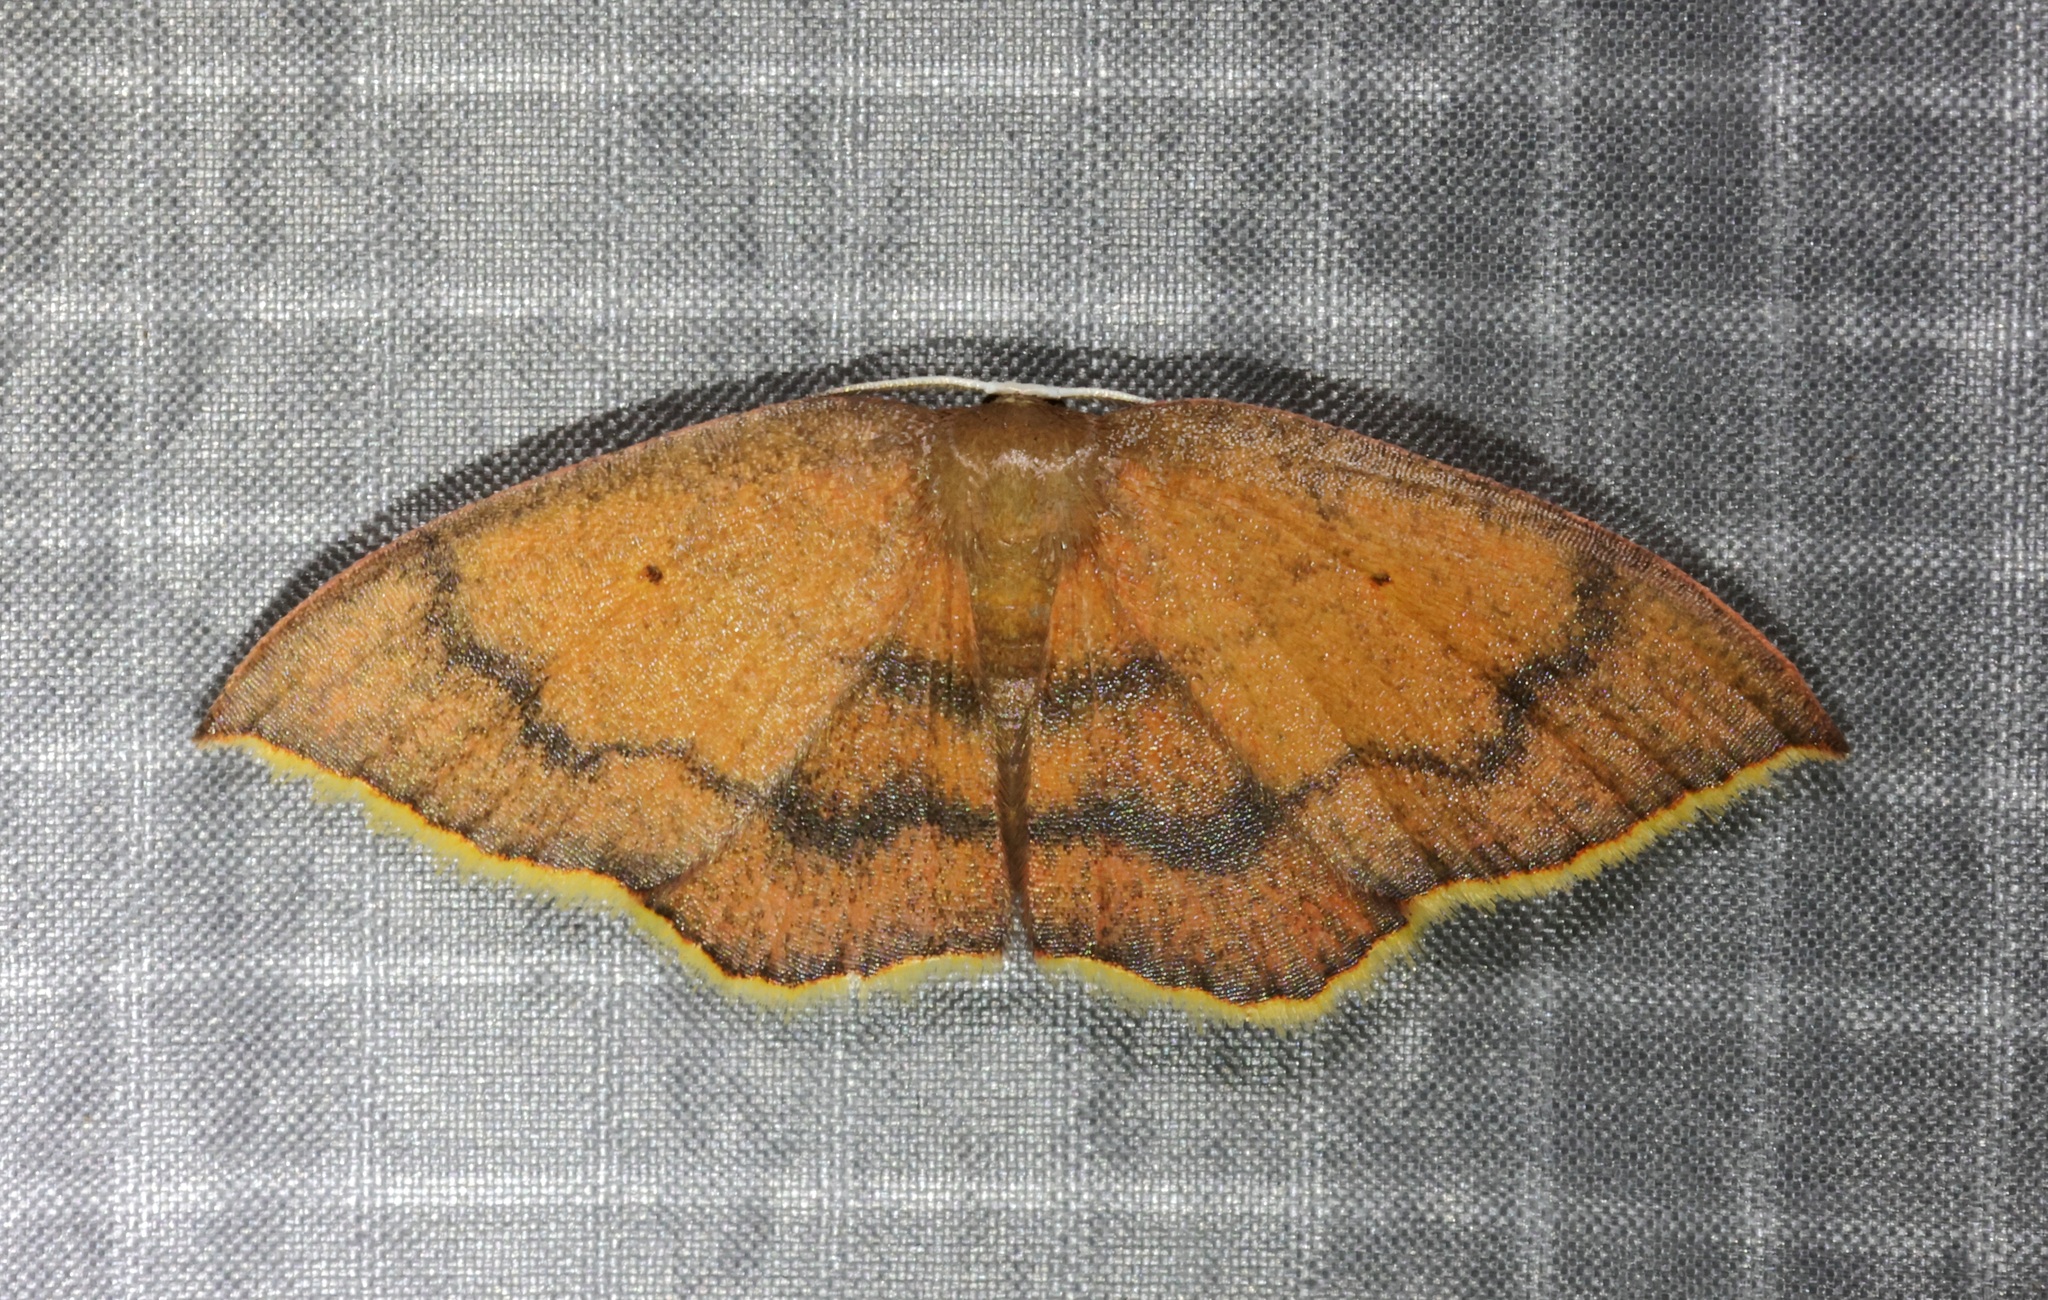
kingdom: Animalia
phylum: Arthropoda
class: Insecta
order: Lepidoptera
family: Uraniidae
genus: Pseudhyria
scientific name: Pseudhyria rubra
